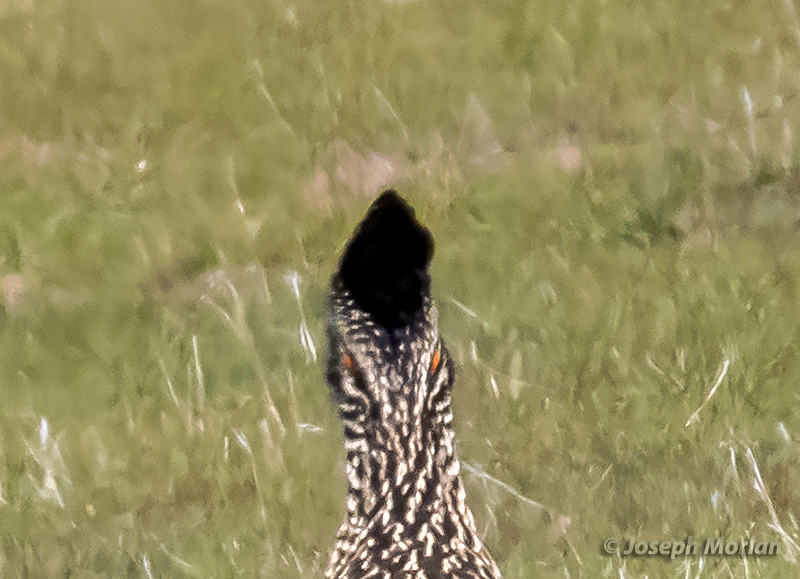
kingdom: Animalia
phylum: Chordata
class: Aves
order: Cuculiformes
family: Cuculidae
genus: Geococcyx
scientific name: Geococcyx californianus
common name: Greater roadrunner
